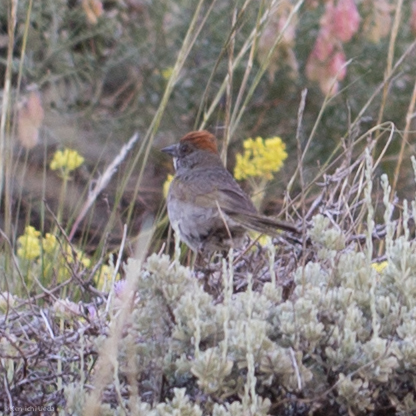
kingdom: Animalia
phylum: Chordata
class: Aves
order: Passeriformes
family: Passerellidae
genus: Pipilo
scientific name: Pipilo chlorurus
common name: Green-tailed towhee
